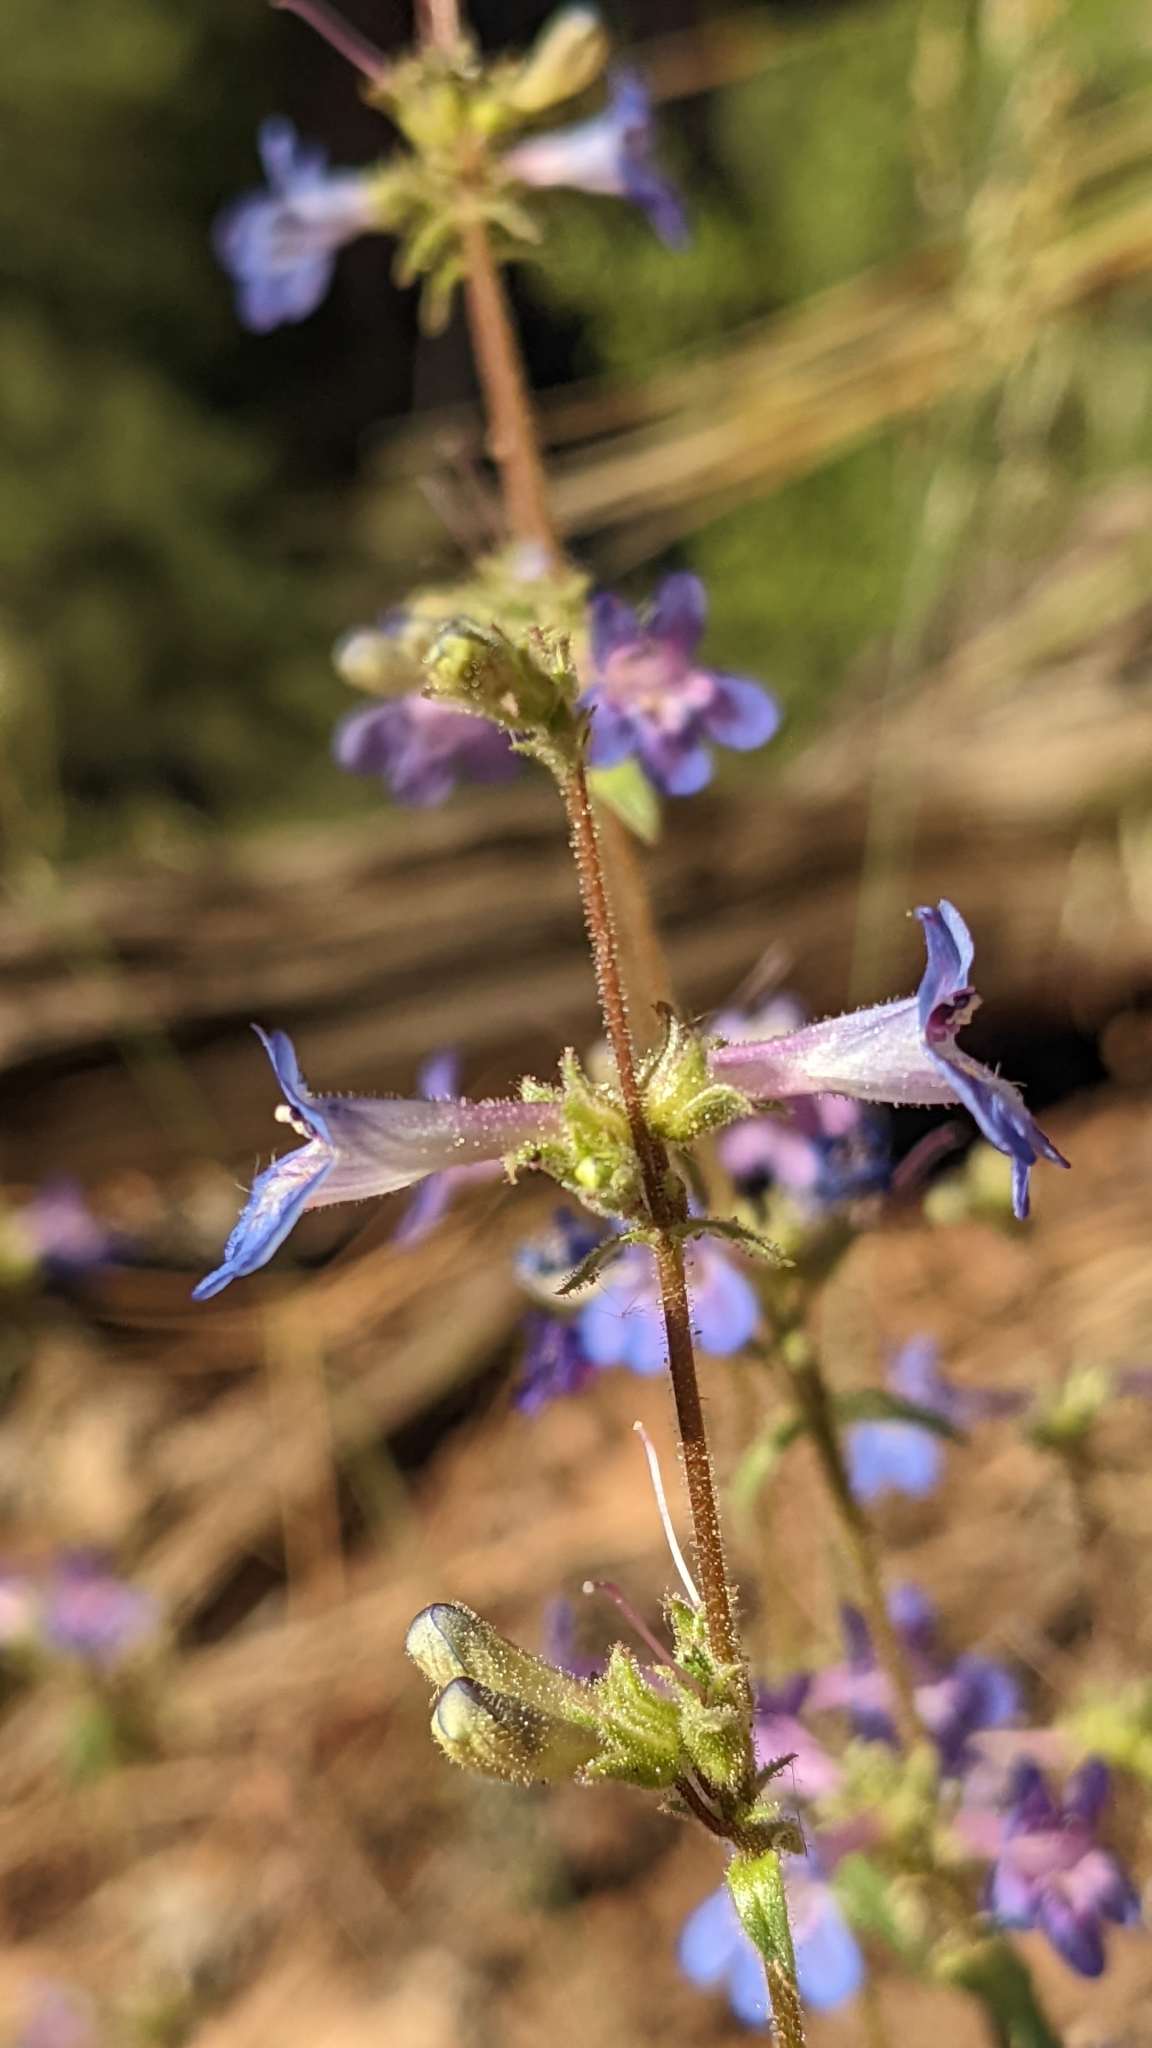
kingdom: Plantae
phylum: Tracheophyta
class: Magnoliopsida
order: Lamiales
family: Plantaginaceae
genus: Penstemon
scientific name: Penstemon humilis
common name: Low penstemon
